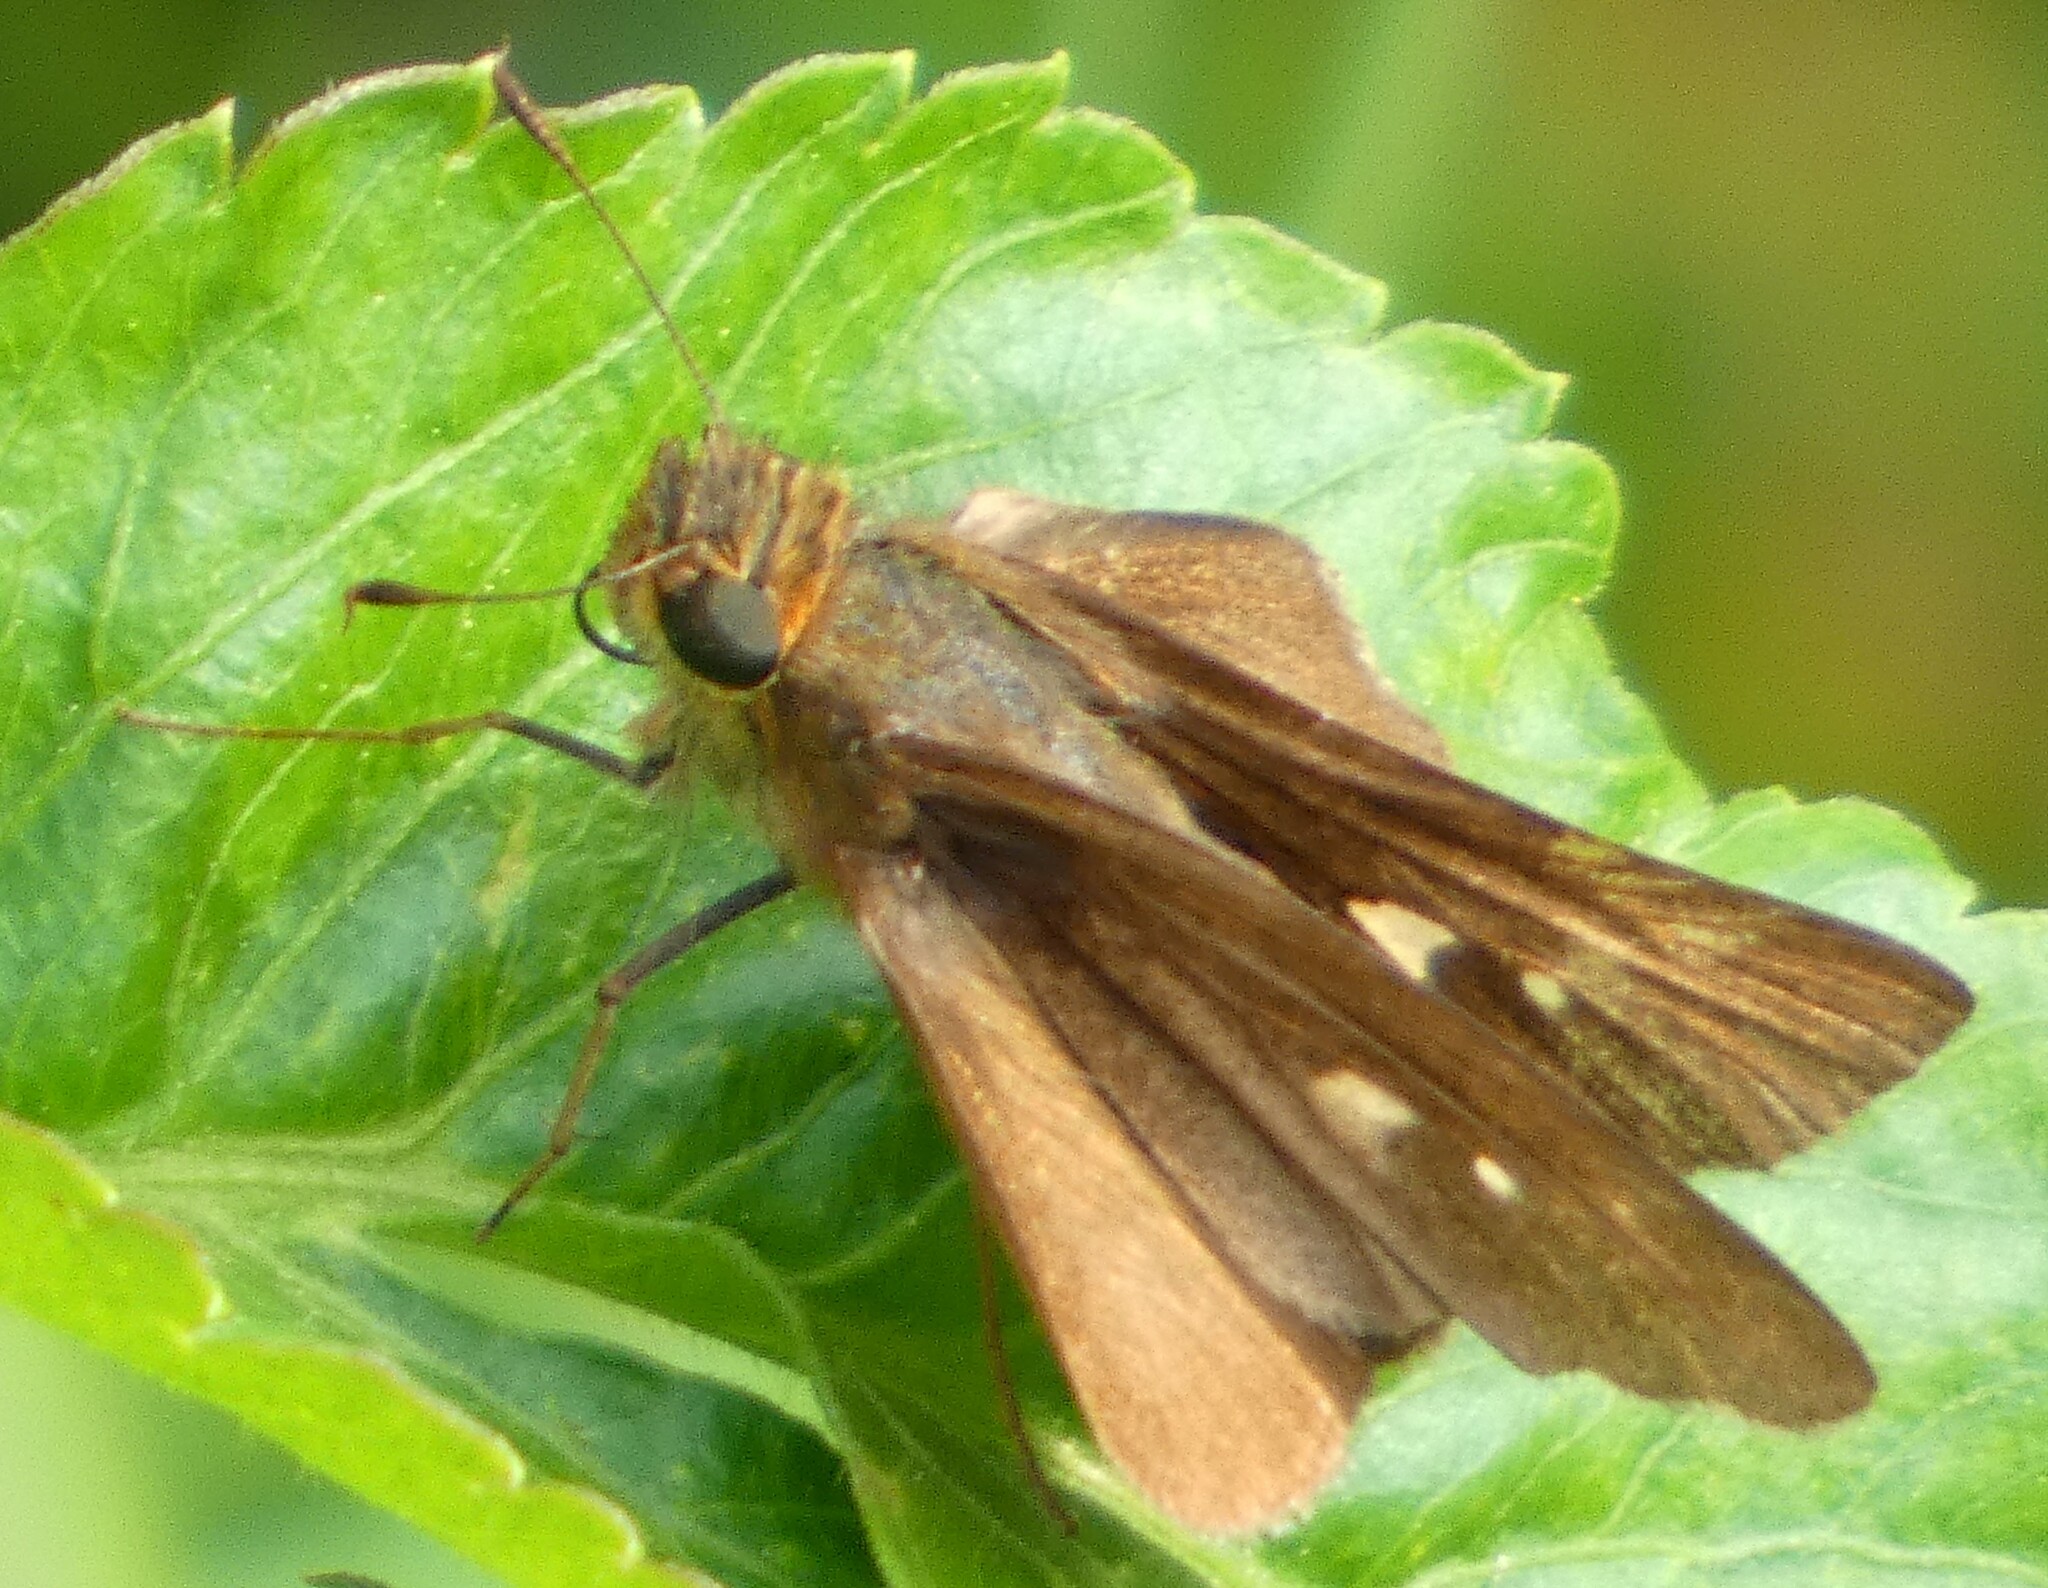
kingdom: Animalia
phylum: Arthropoda
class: Insecta
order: Lepidoptera
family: Hesperiidae
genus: Panoquina
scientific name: Panoquina ocola
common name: Ocola skipper
